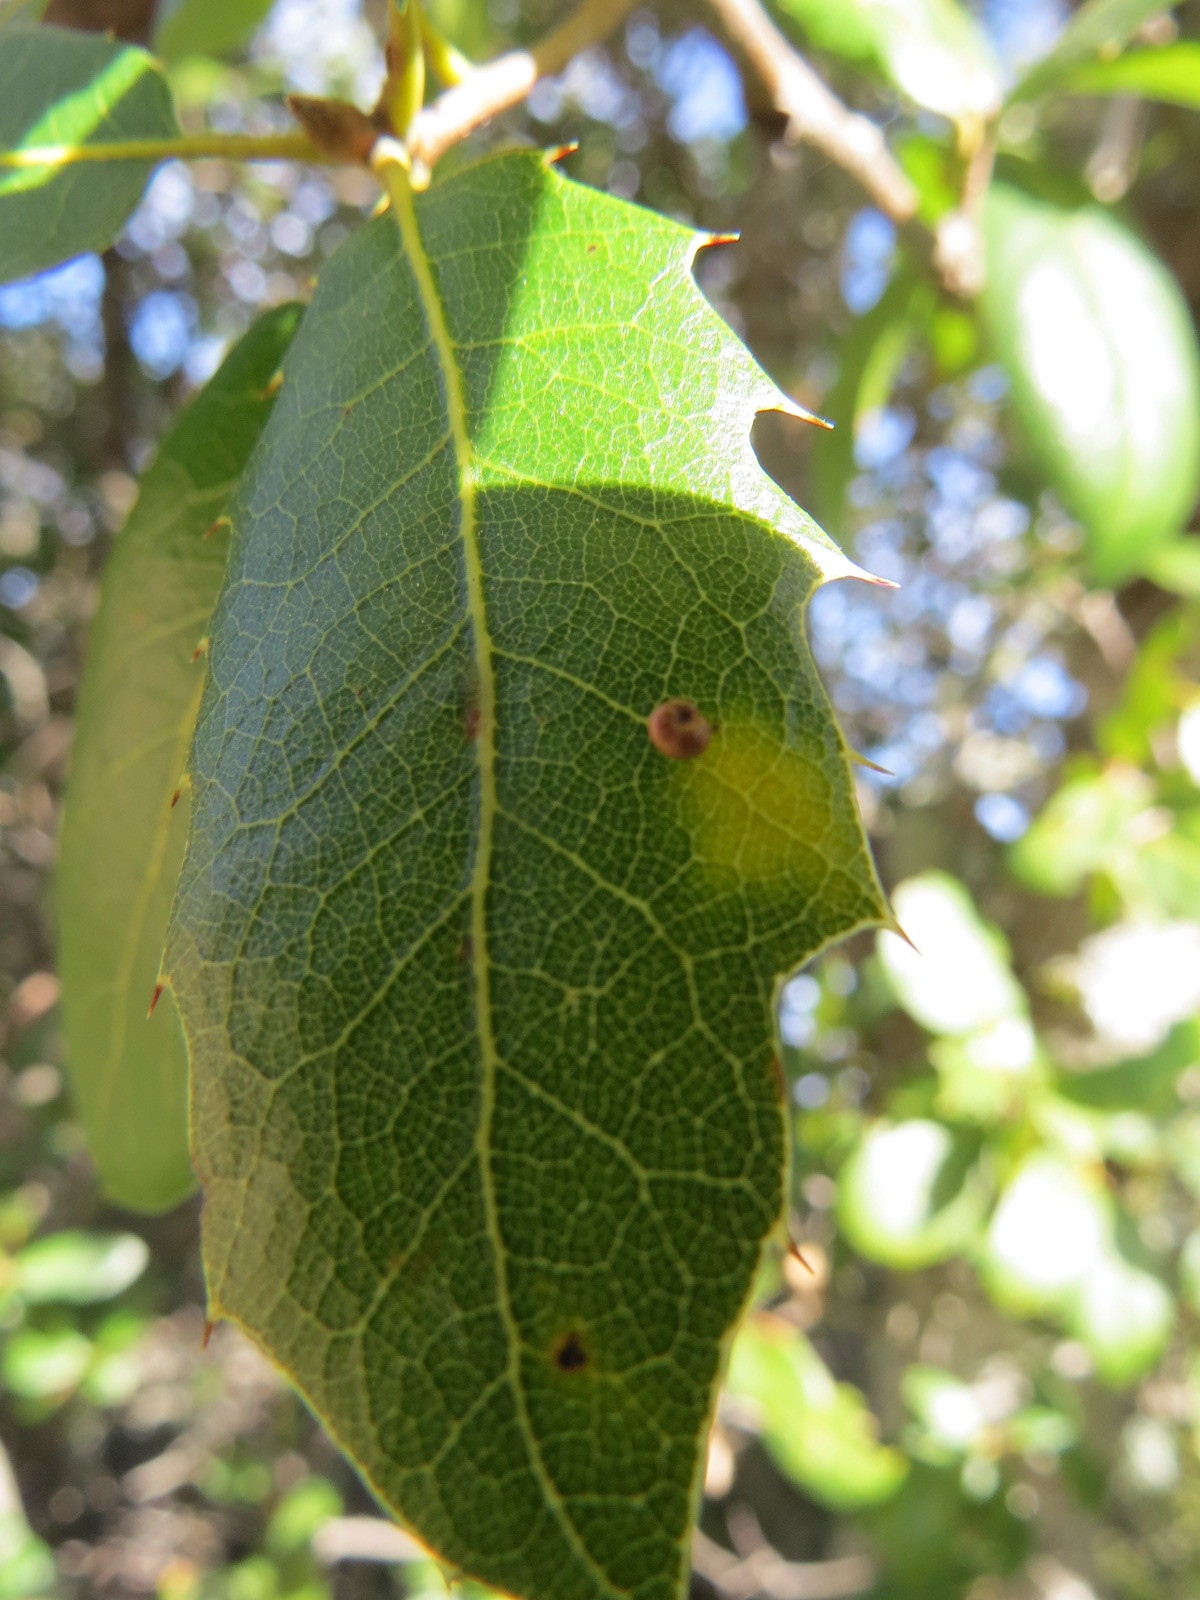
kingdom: Animalia
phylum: Arthropoda
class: Insecta
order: Hymenoptera
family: Cynipidae
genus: Dryocosmus
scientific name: Dryocosmus
